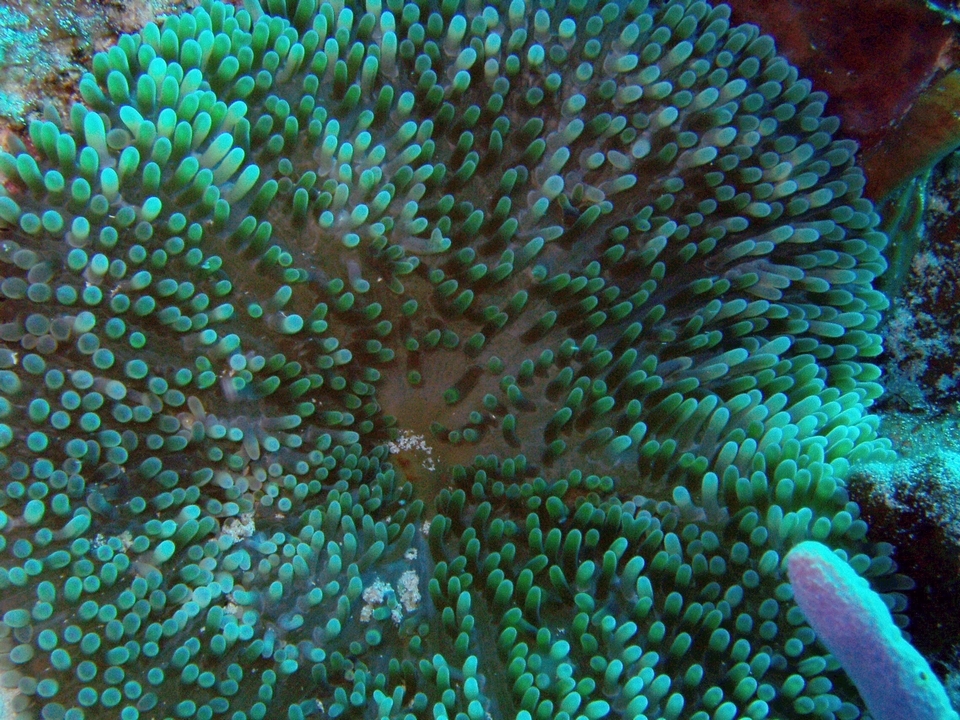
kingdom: Animalia
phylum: Cnidaria
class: Anthozoa
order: Actiniaria
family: Stichodactylidae
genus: Stichodactyla
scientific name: Stichodactyla helianthus
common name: Sun anemone
